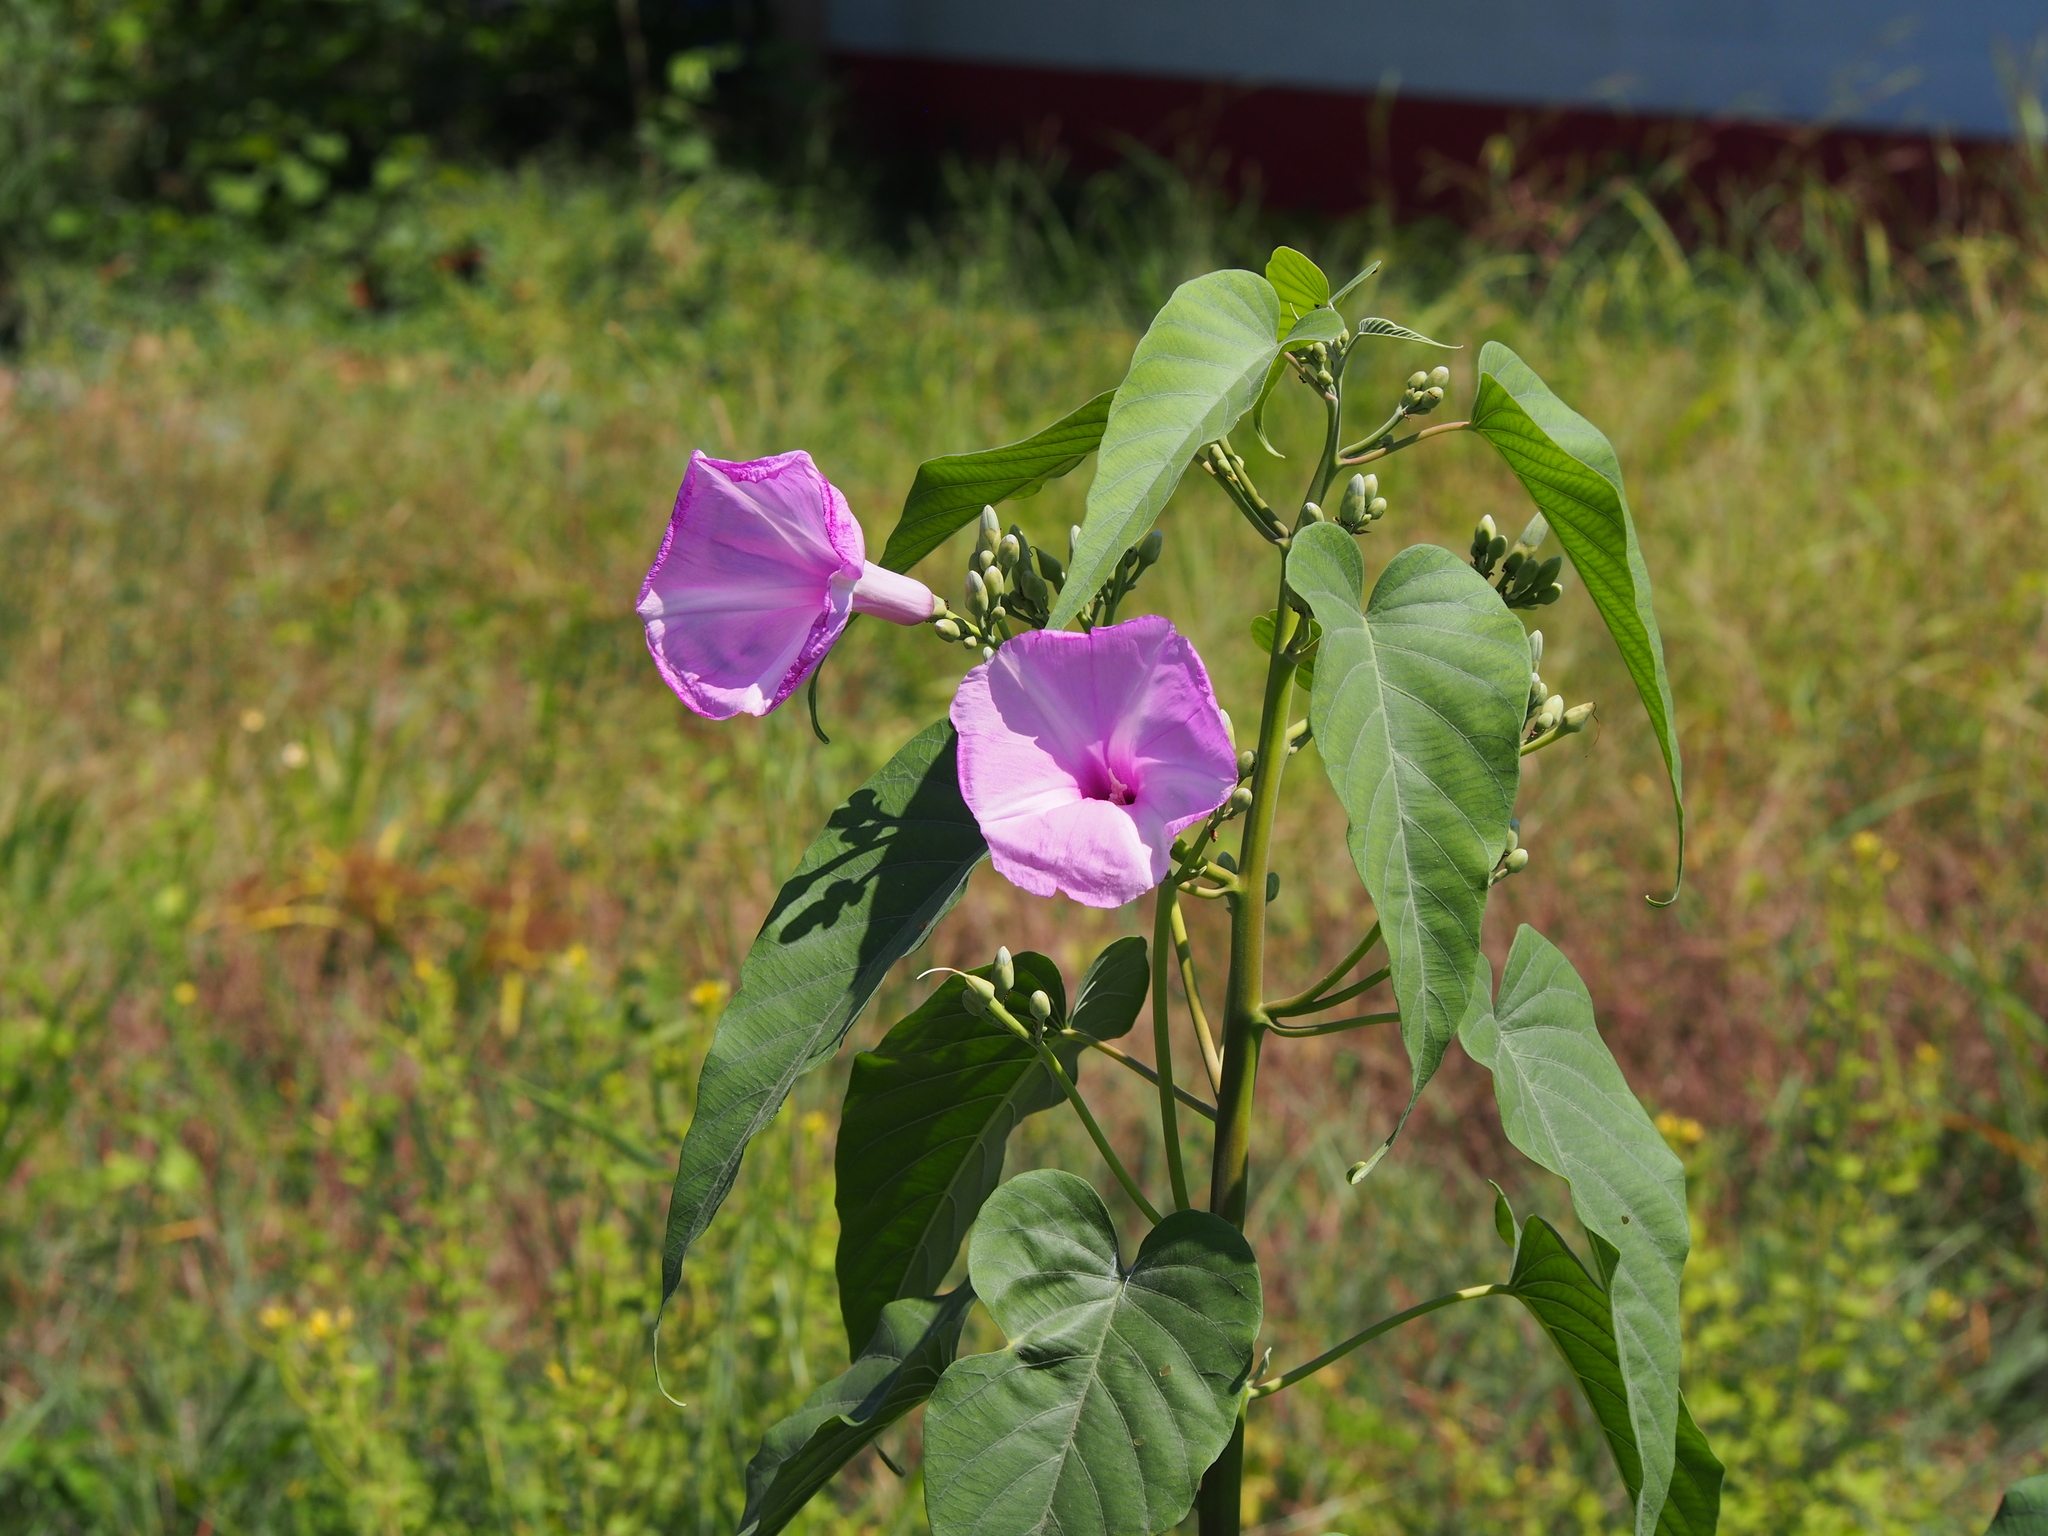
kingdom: Plantae
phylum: Tracheophyta
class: Magnoliopsida
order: Solanales
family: Convolvulaceae
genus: Ipomoea
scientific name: Ipomoea carnea
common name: Morning-glory
